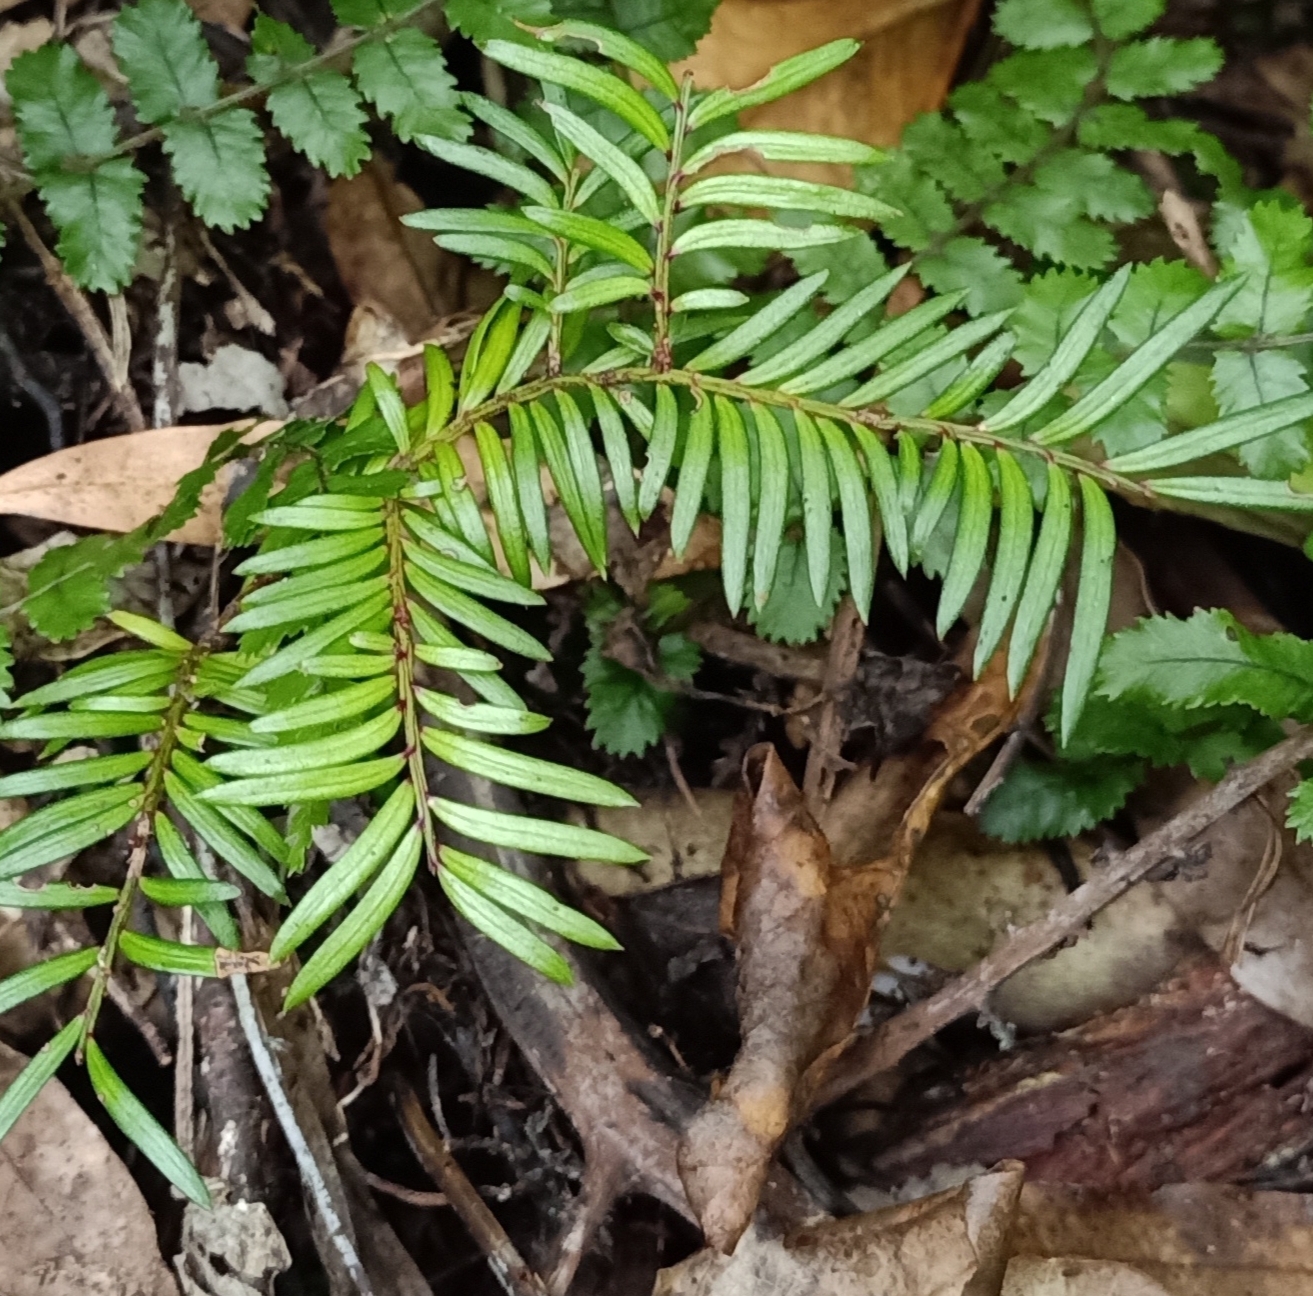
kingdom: Plantae
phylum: Tracheophyta
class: Pinopsida
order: Pinales
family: Podocarpaceae
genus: Prumnopitys
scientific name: Prumnopitys ferruginea
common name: Brown pine
